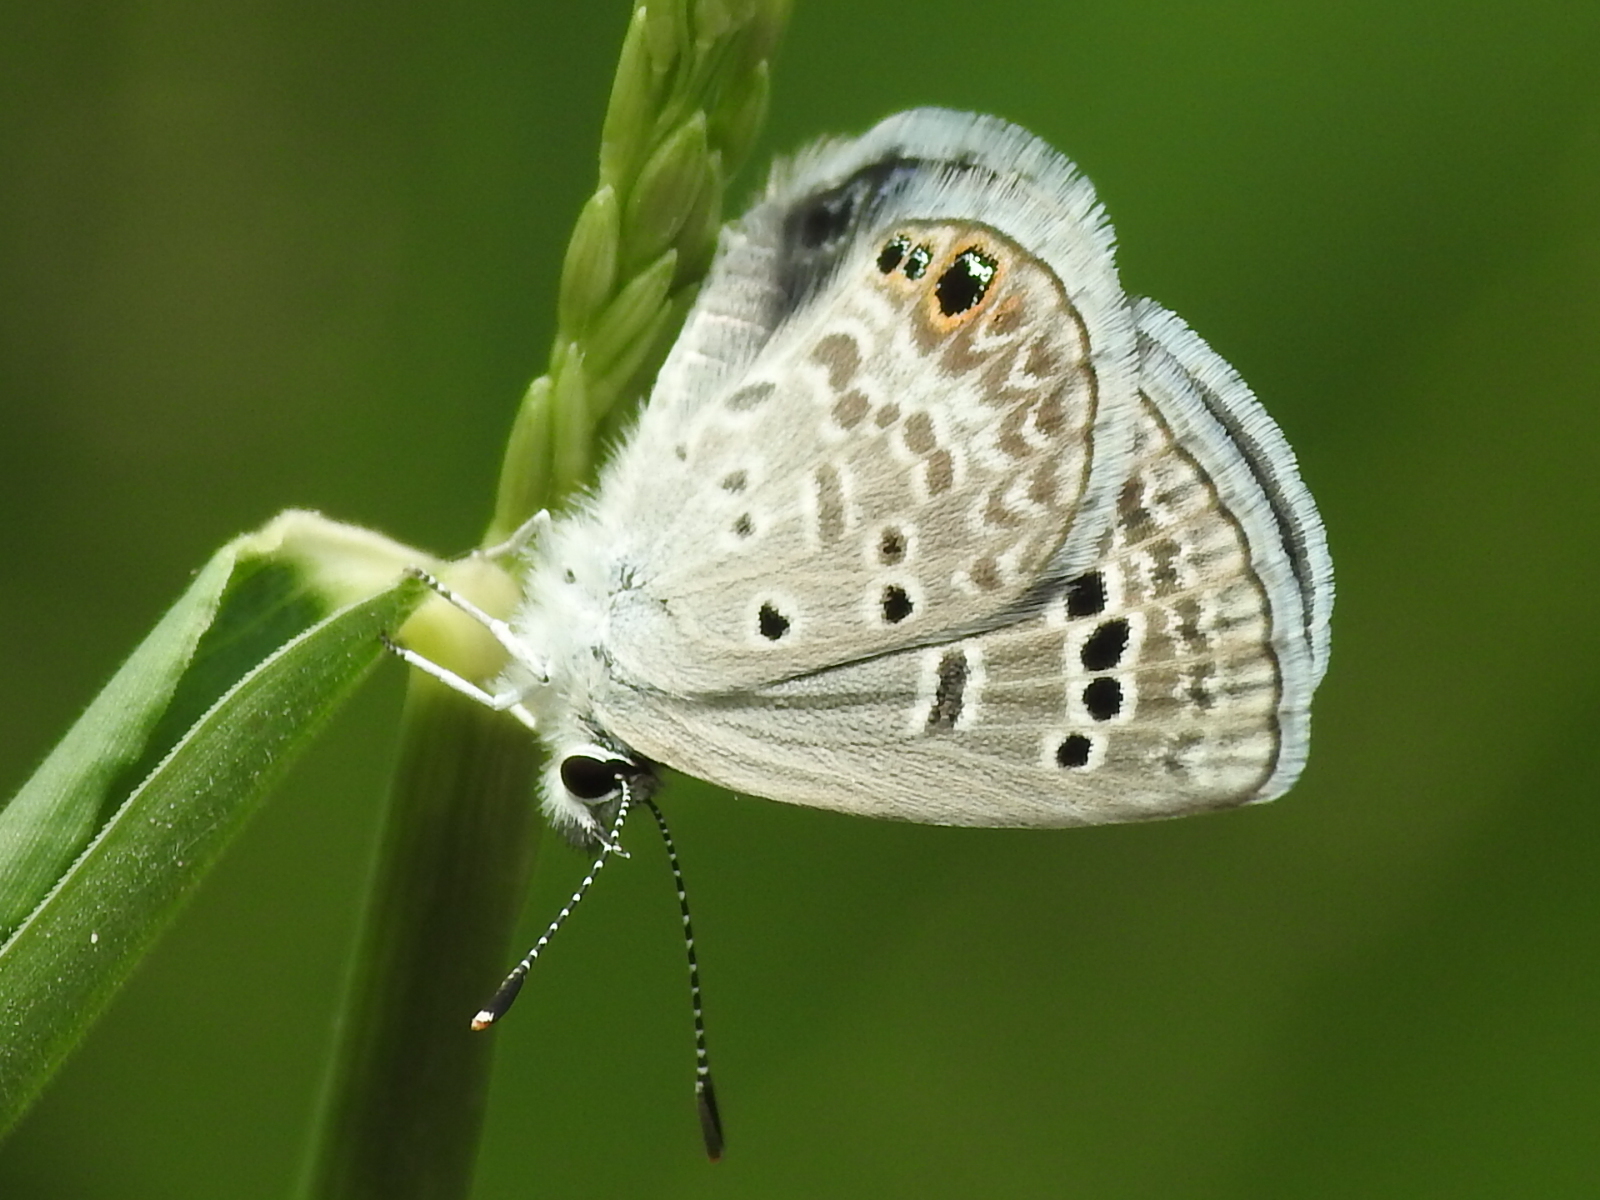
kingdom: Animalia
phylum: Arthropoda
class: Insecta
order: Lepidoptera
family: Lycaenidae
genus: Echinargus
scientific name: Echinargus isola
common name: Reakirt's blue
